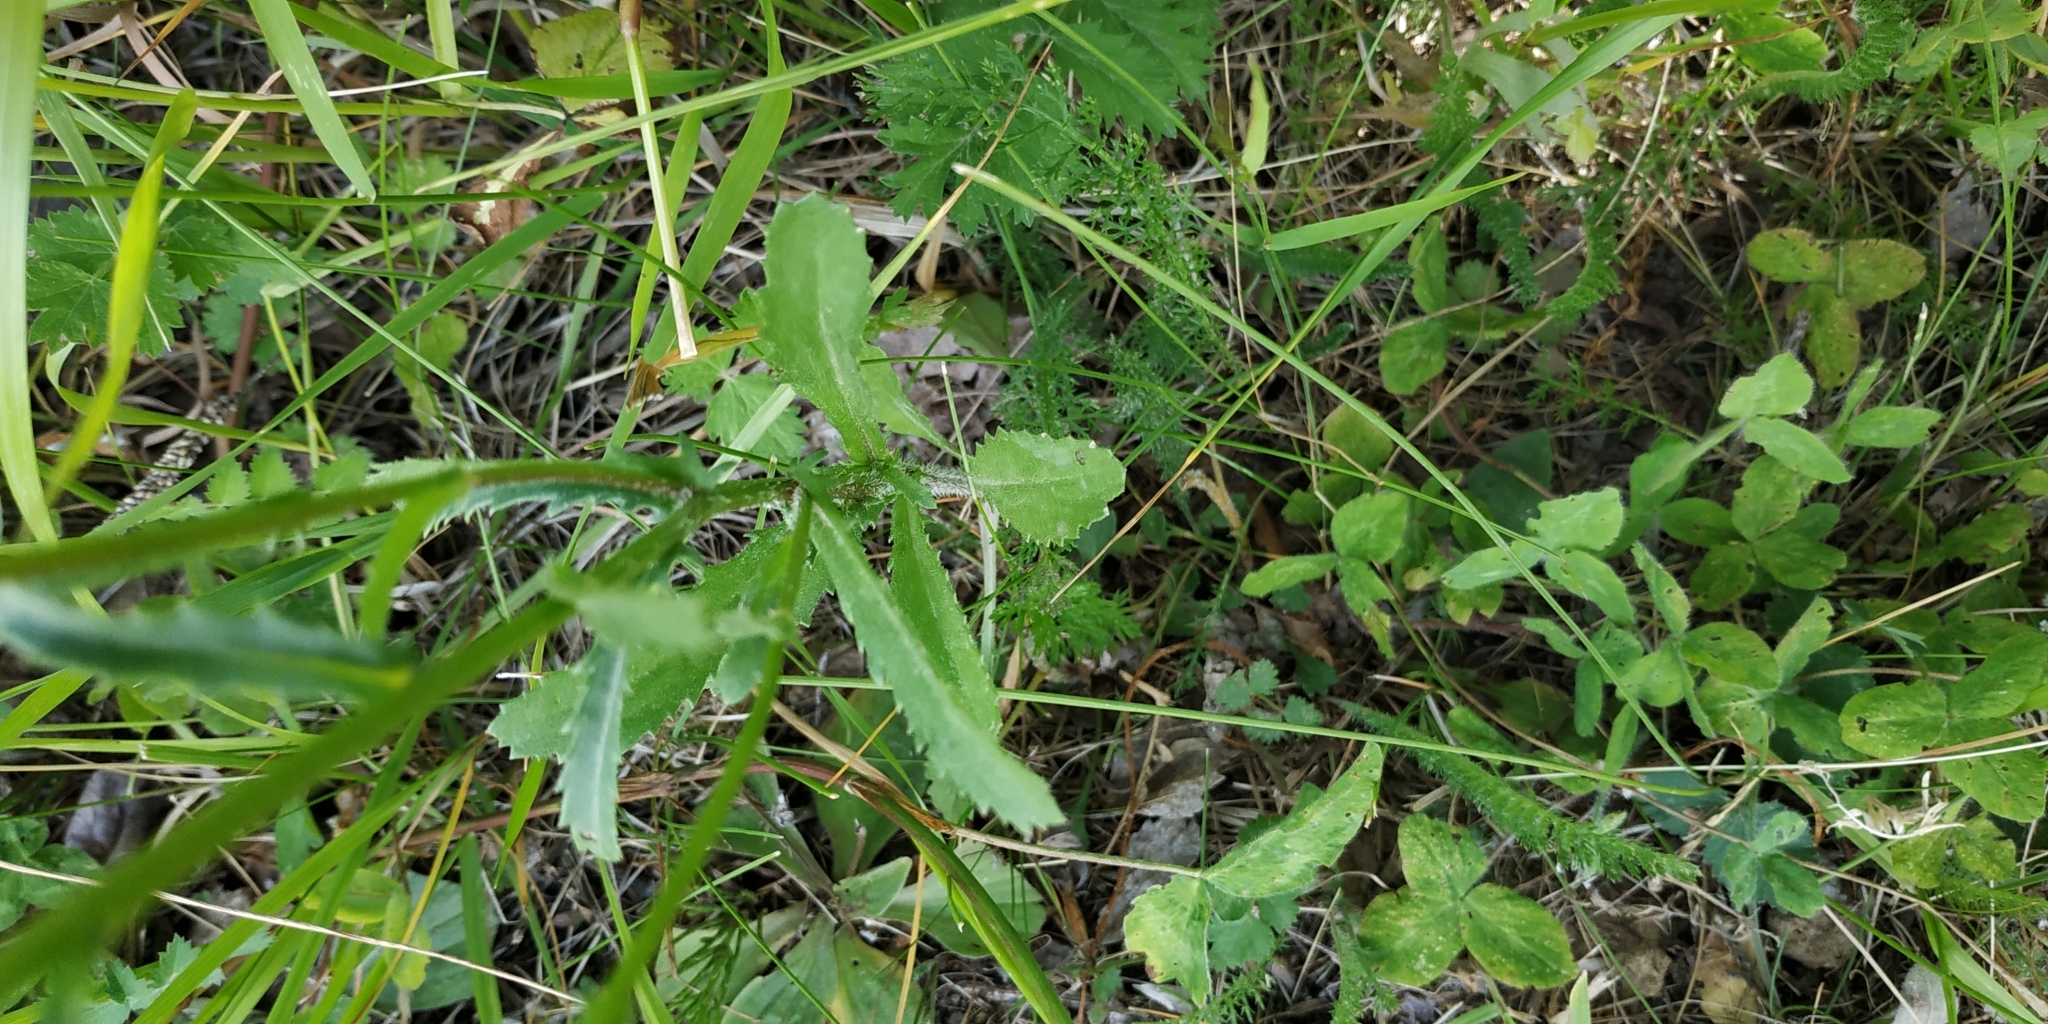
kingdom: Plantae
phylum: Tracheophyta
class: Magnoliopsida
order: Asterales
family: Asteraceae
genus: Leucanthemum
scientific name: Leucanthemum ircutianum
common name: Daisy
